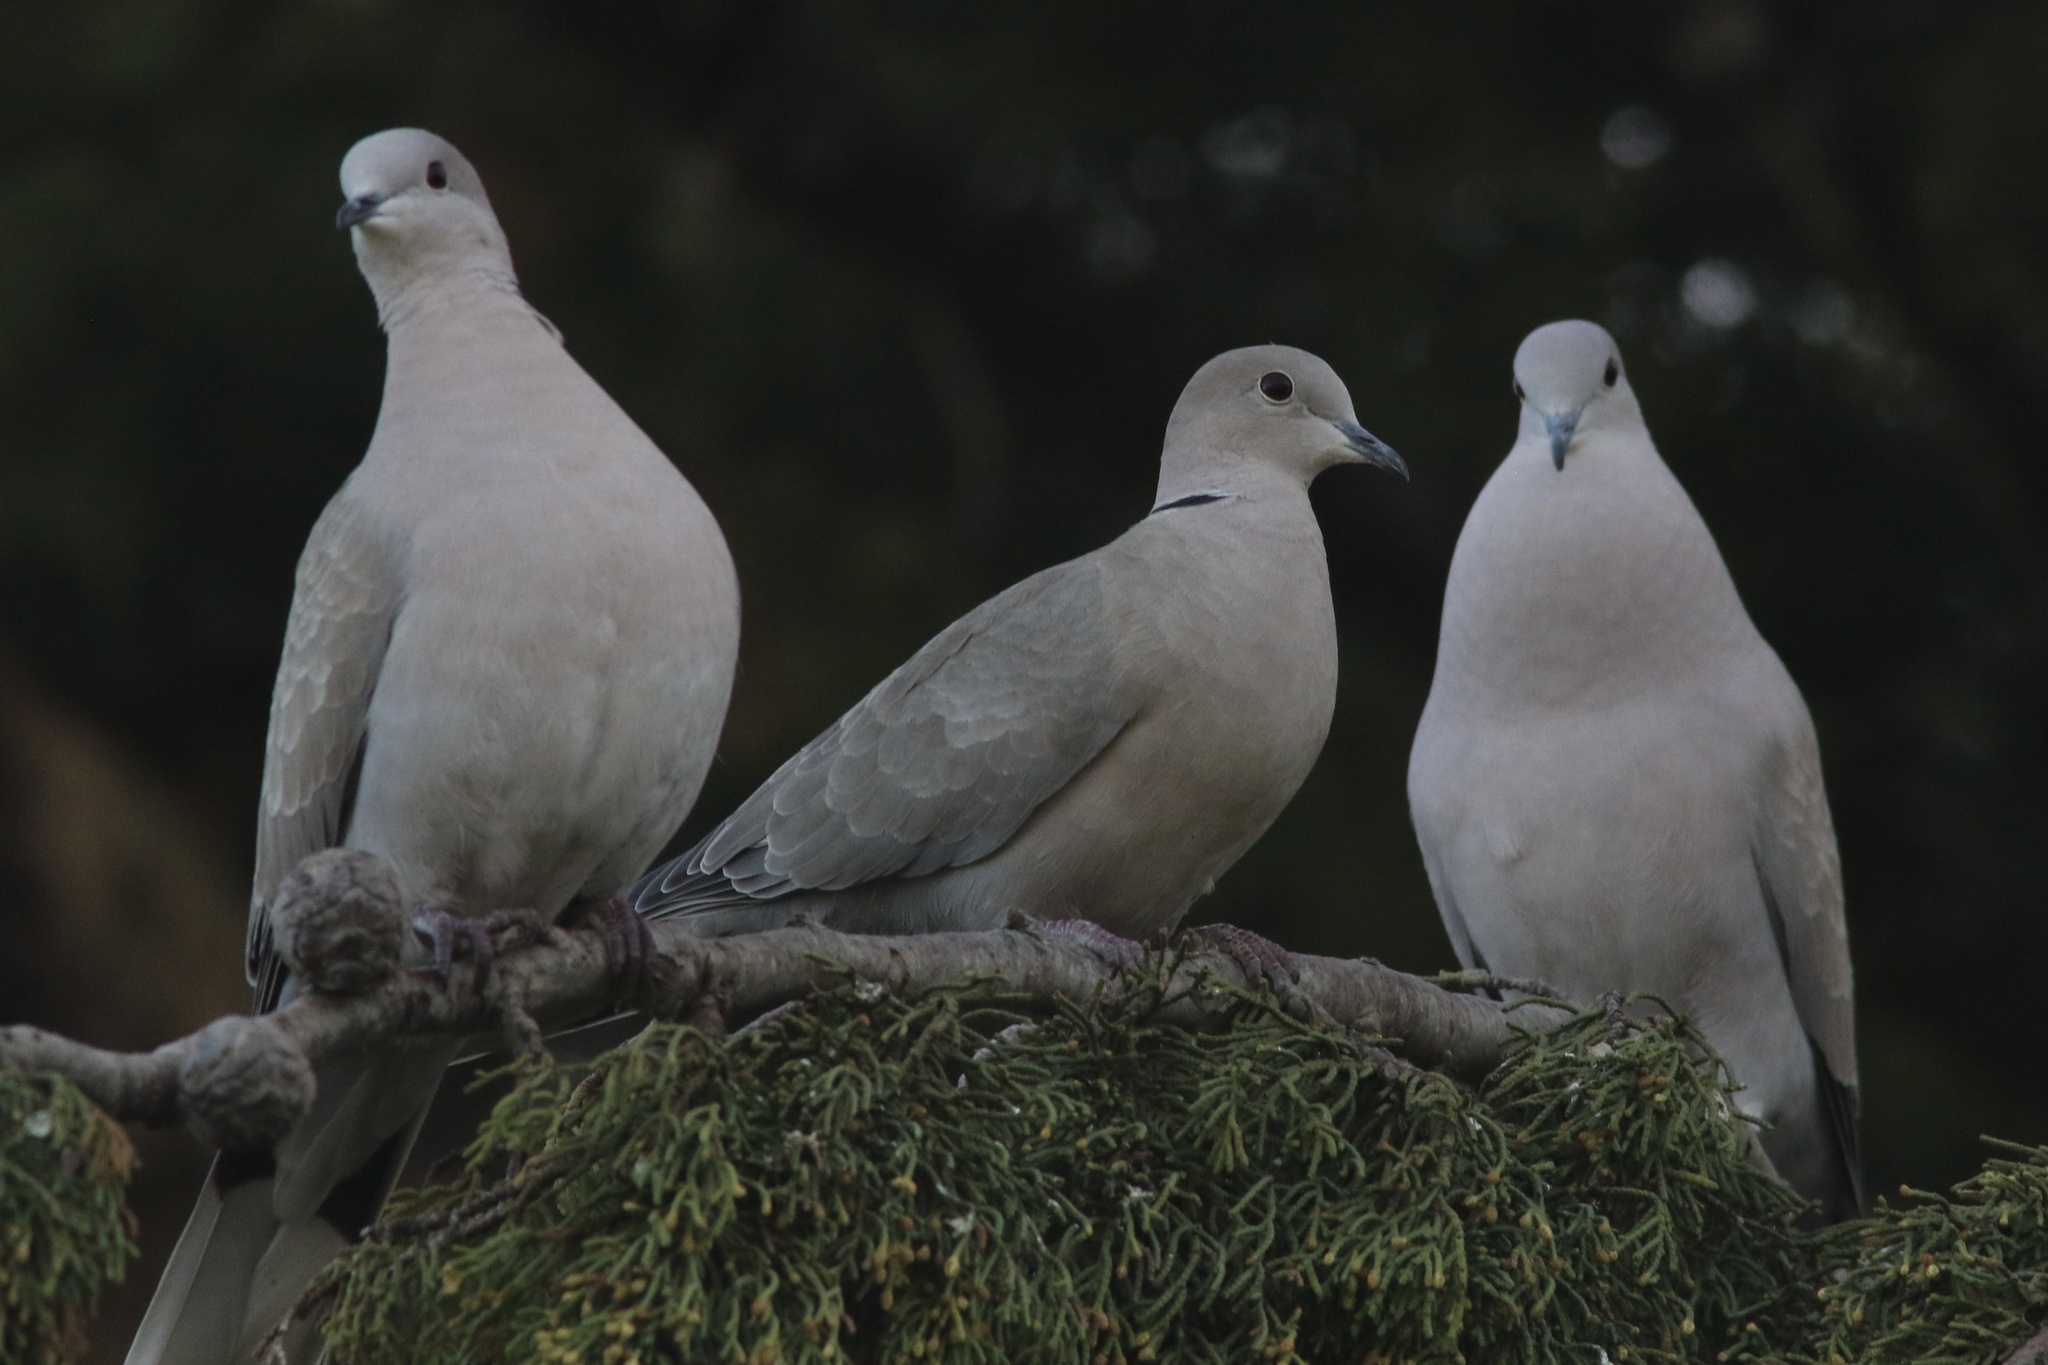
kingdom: Animalia
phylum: Chordata
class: Aves
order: Columbiformes
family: Columbidae
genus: Streptopelia
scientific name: Streptopelia decaocto
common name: Eurasian collared dove
